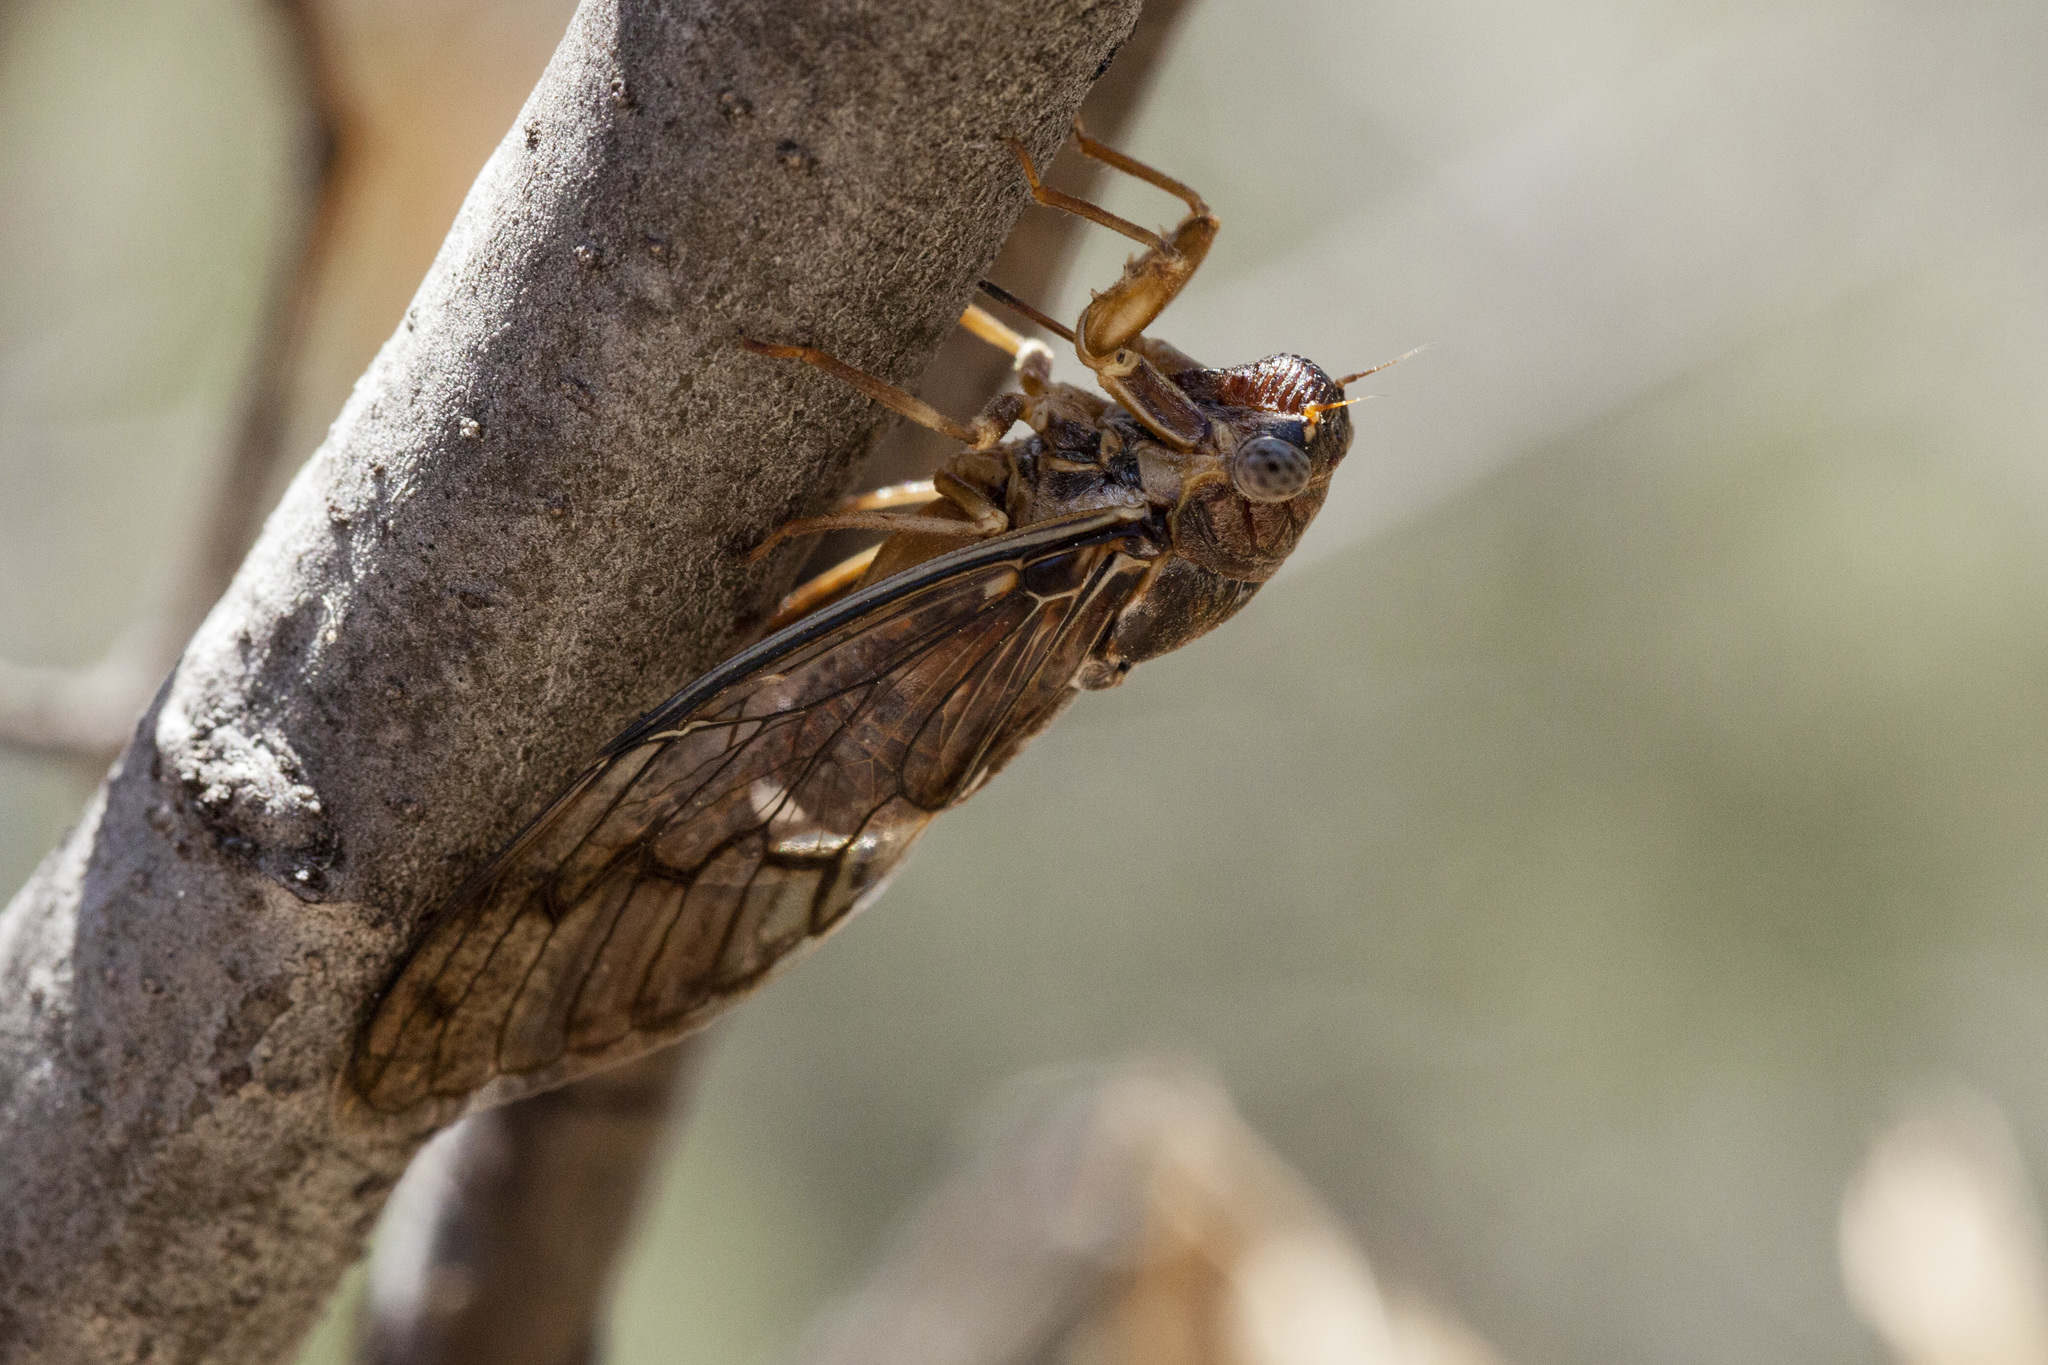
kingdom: Animalia
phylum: Arthropoda
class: Insecta
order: Hemiptera
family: Cicadidae
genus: Diceroprocta
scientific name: Diceroprocta swalei
